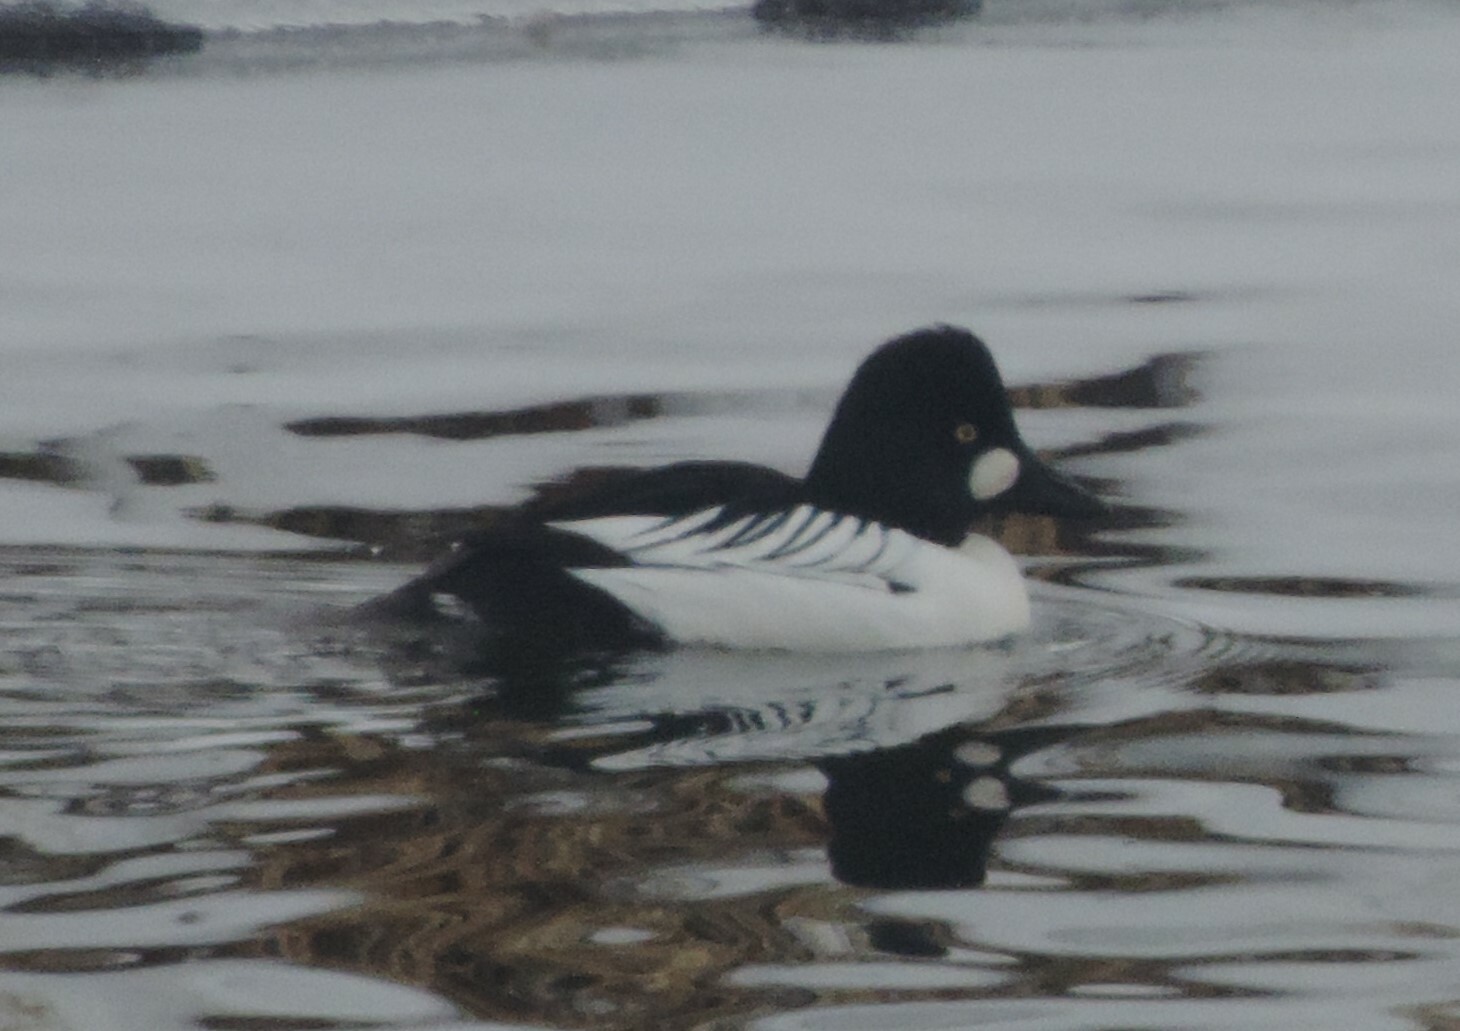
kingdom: Animalia
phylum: Chordata
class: Aves
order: Anseriformes
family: Anatidae
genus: Bucephala
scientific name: Bucephala clangula
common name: Common goldeneye
